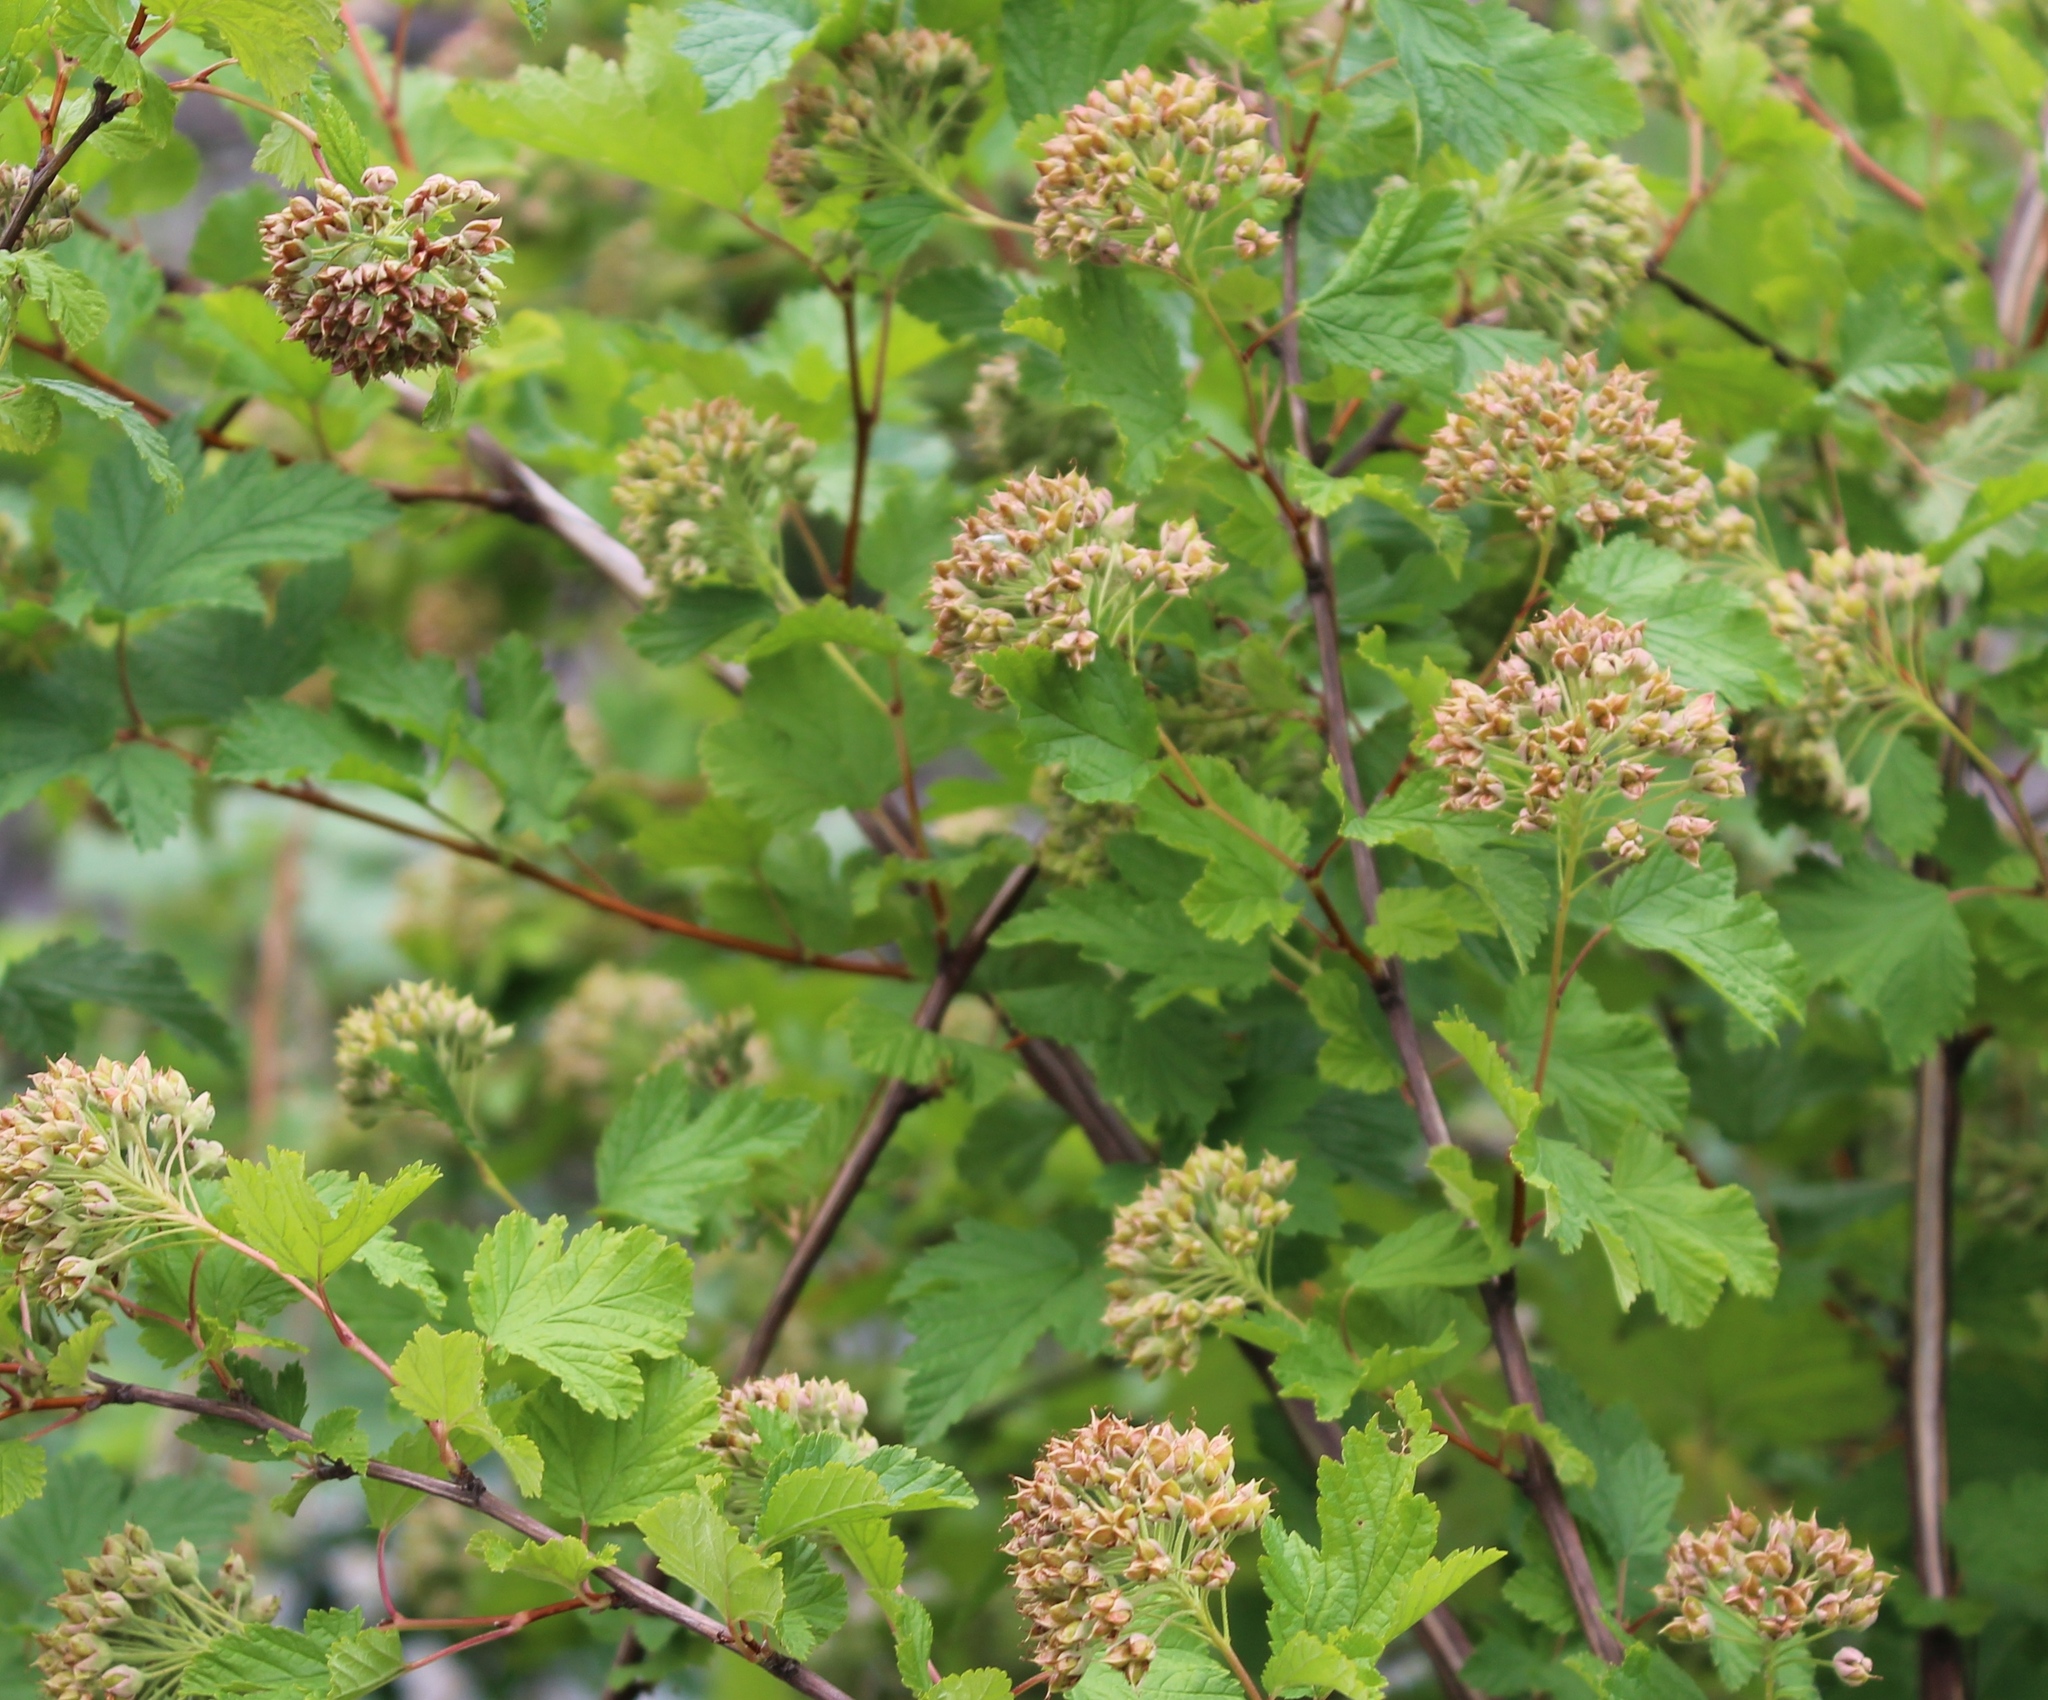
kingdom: Plantae
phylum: Tracheophyta
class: Magnoliopsida
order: Rosales
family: Rosaceae
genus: Physocarpus
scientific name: Physocarpus capitatus
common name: Pacific ninebark
